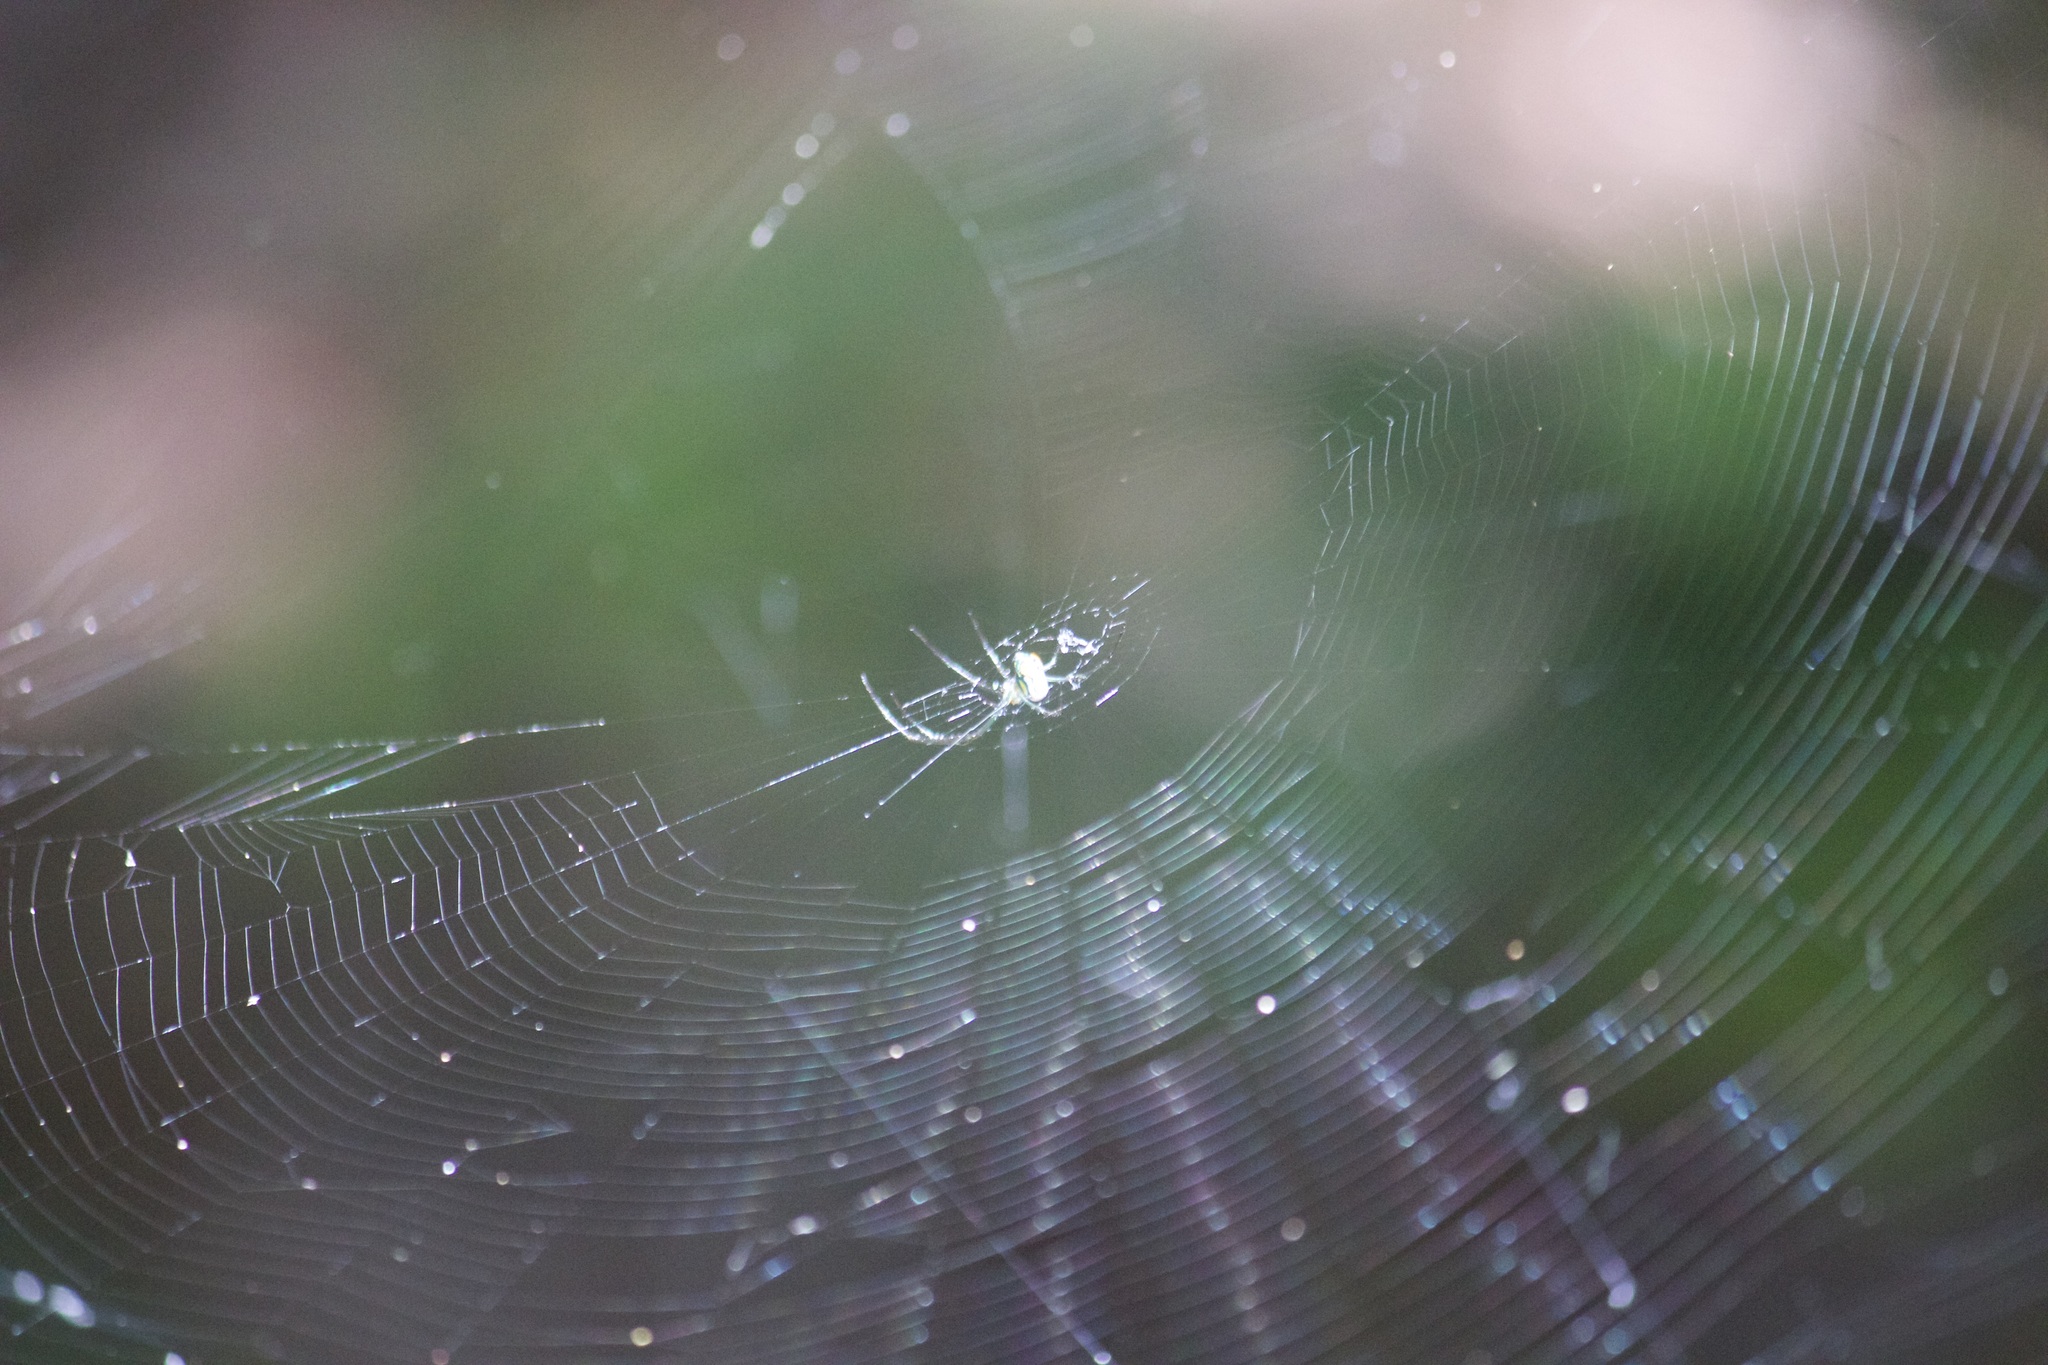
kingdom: Animalia
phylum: Arthropoda
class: Arachnida
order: Araneae
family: Tetragnathidae
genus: Leucauge
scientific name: Leucauge argyrobapta
